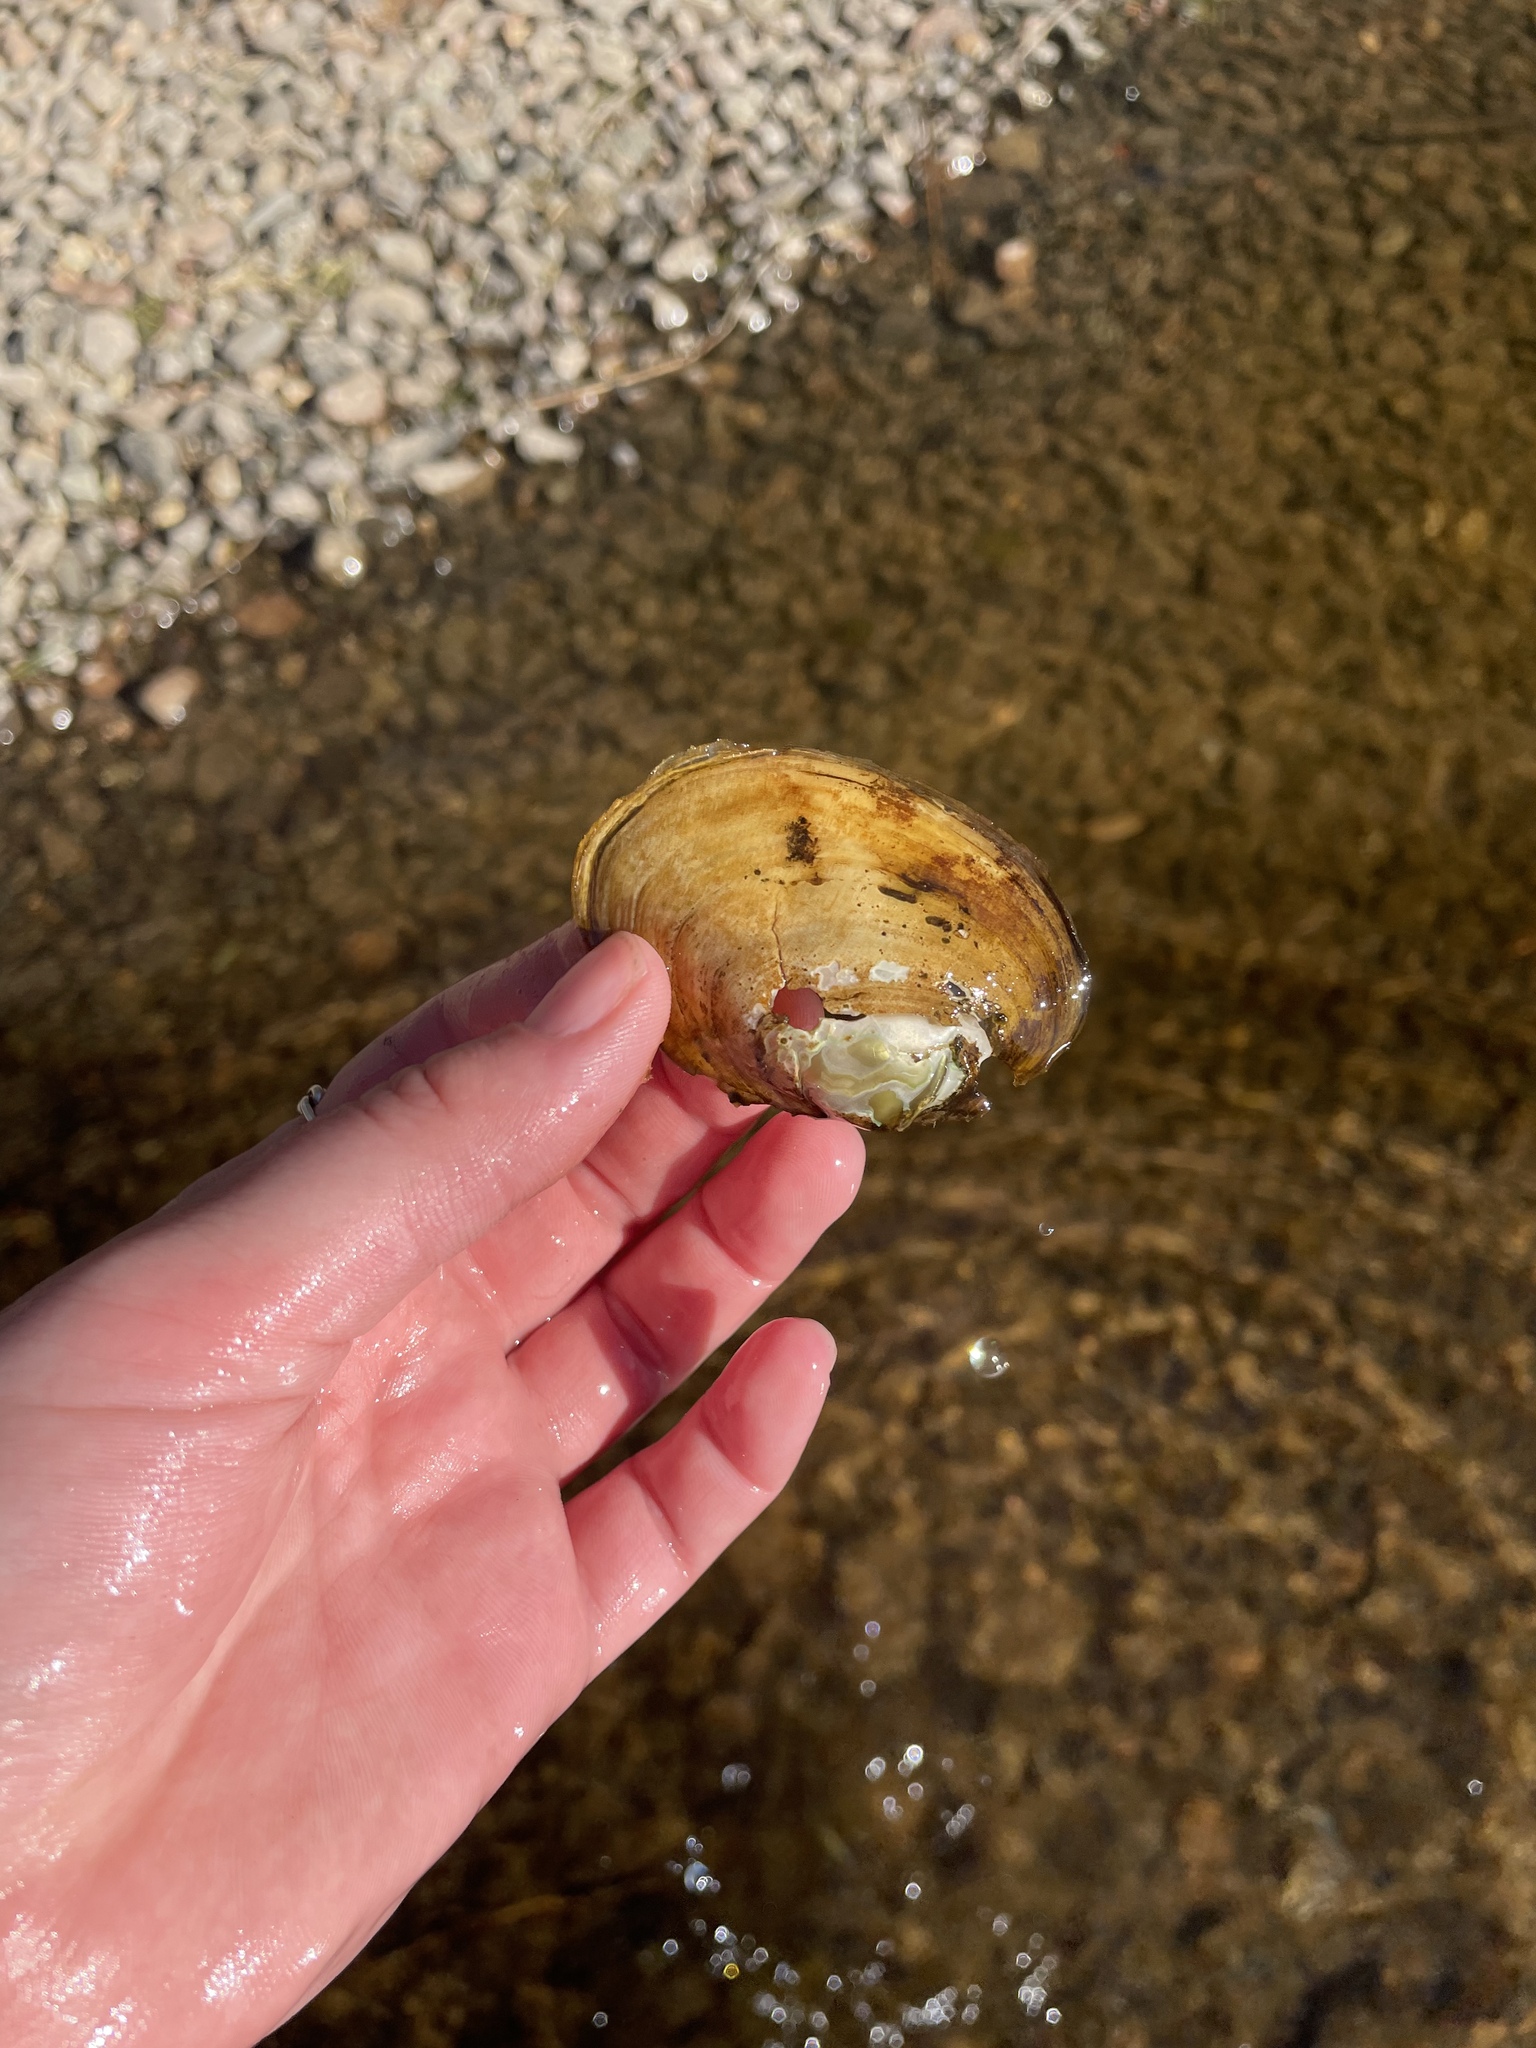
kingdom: Animalia
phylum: Mollusca
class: Bivalvia
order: Unionida
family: Unionidae
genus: Lampsilis
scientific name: Lampsilis cariosa
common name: Yellow lampmussel
